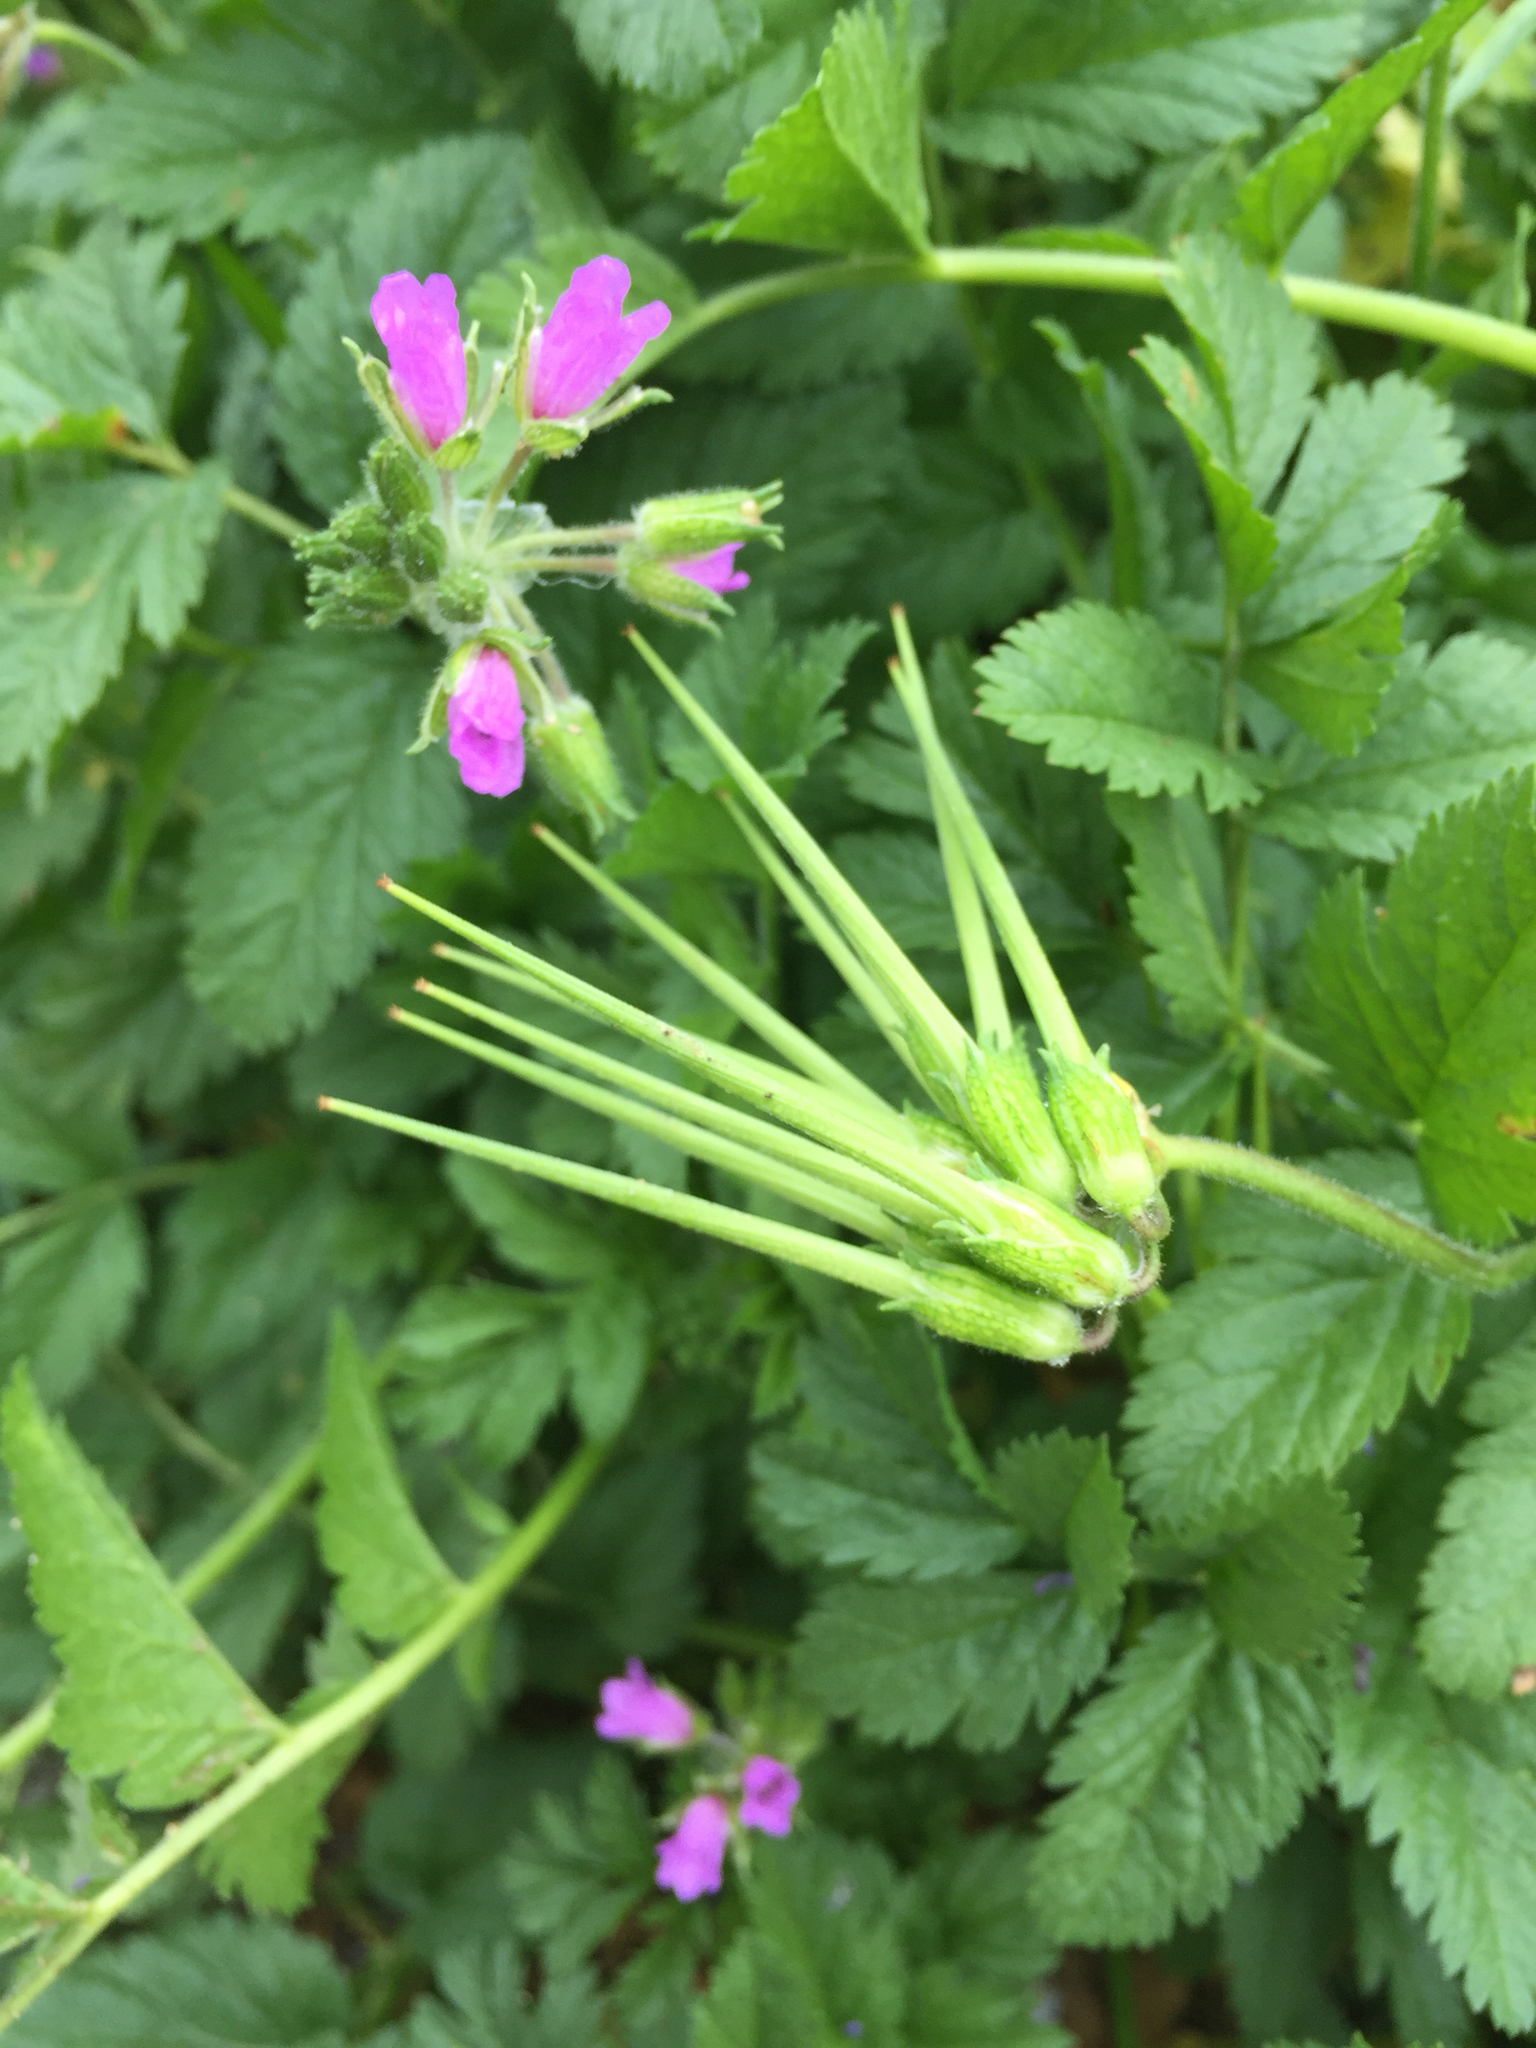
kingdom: Plantae
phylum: Tracheophyta
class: Magnoliopsida
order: Geraniales
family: Geraniaceae
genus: Erodium
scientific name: Erodium moschatum
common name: Musk stork's-bill
